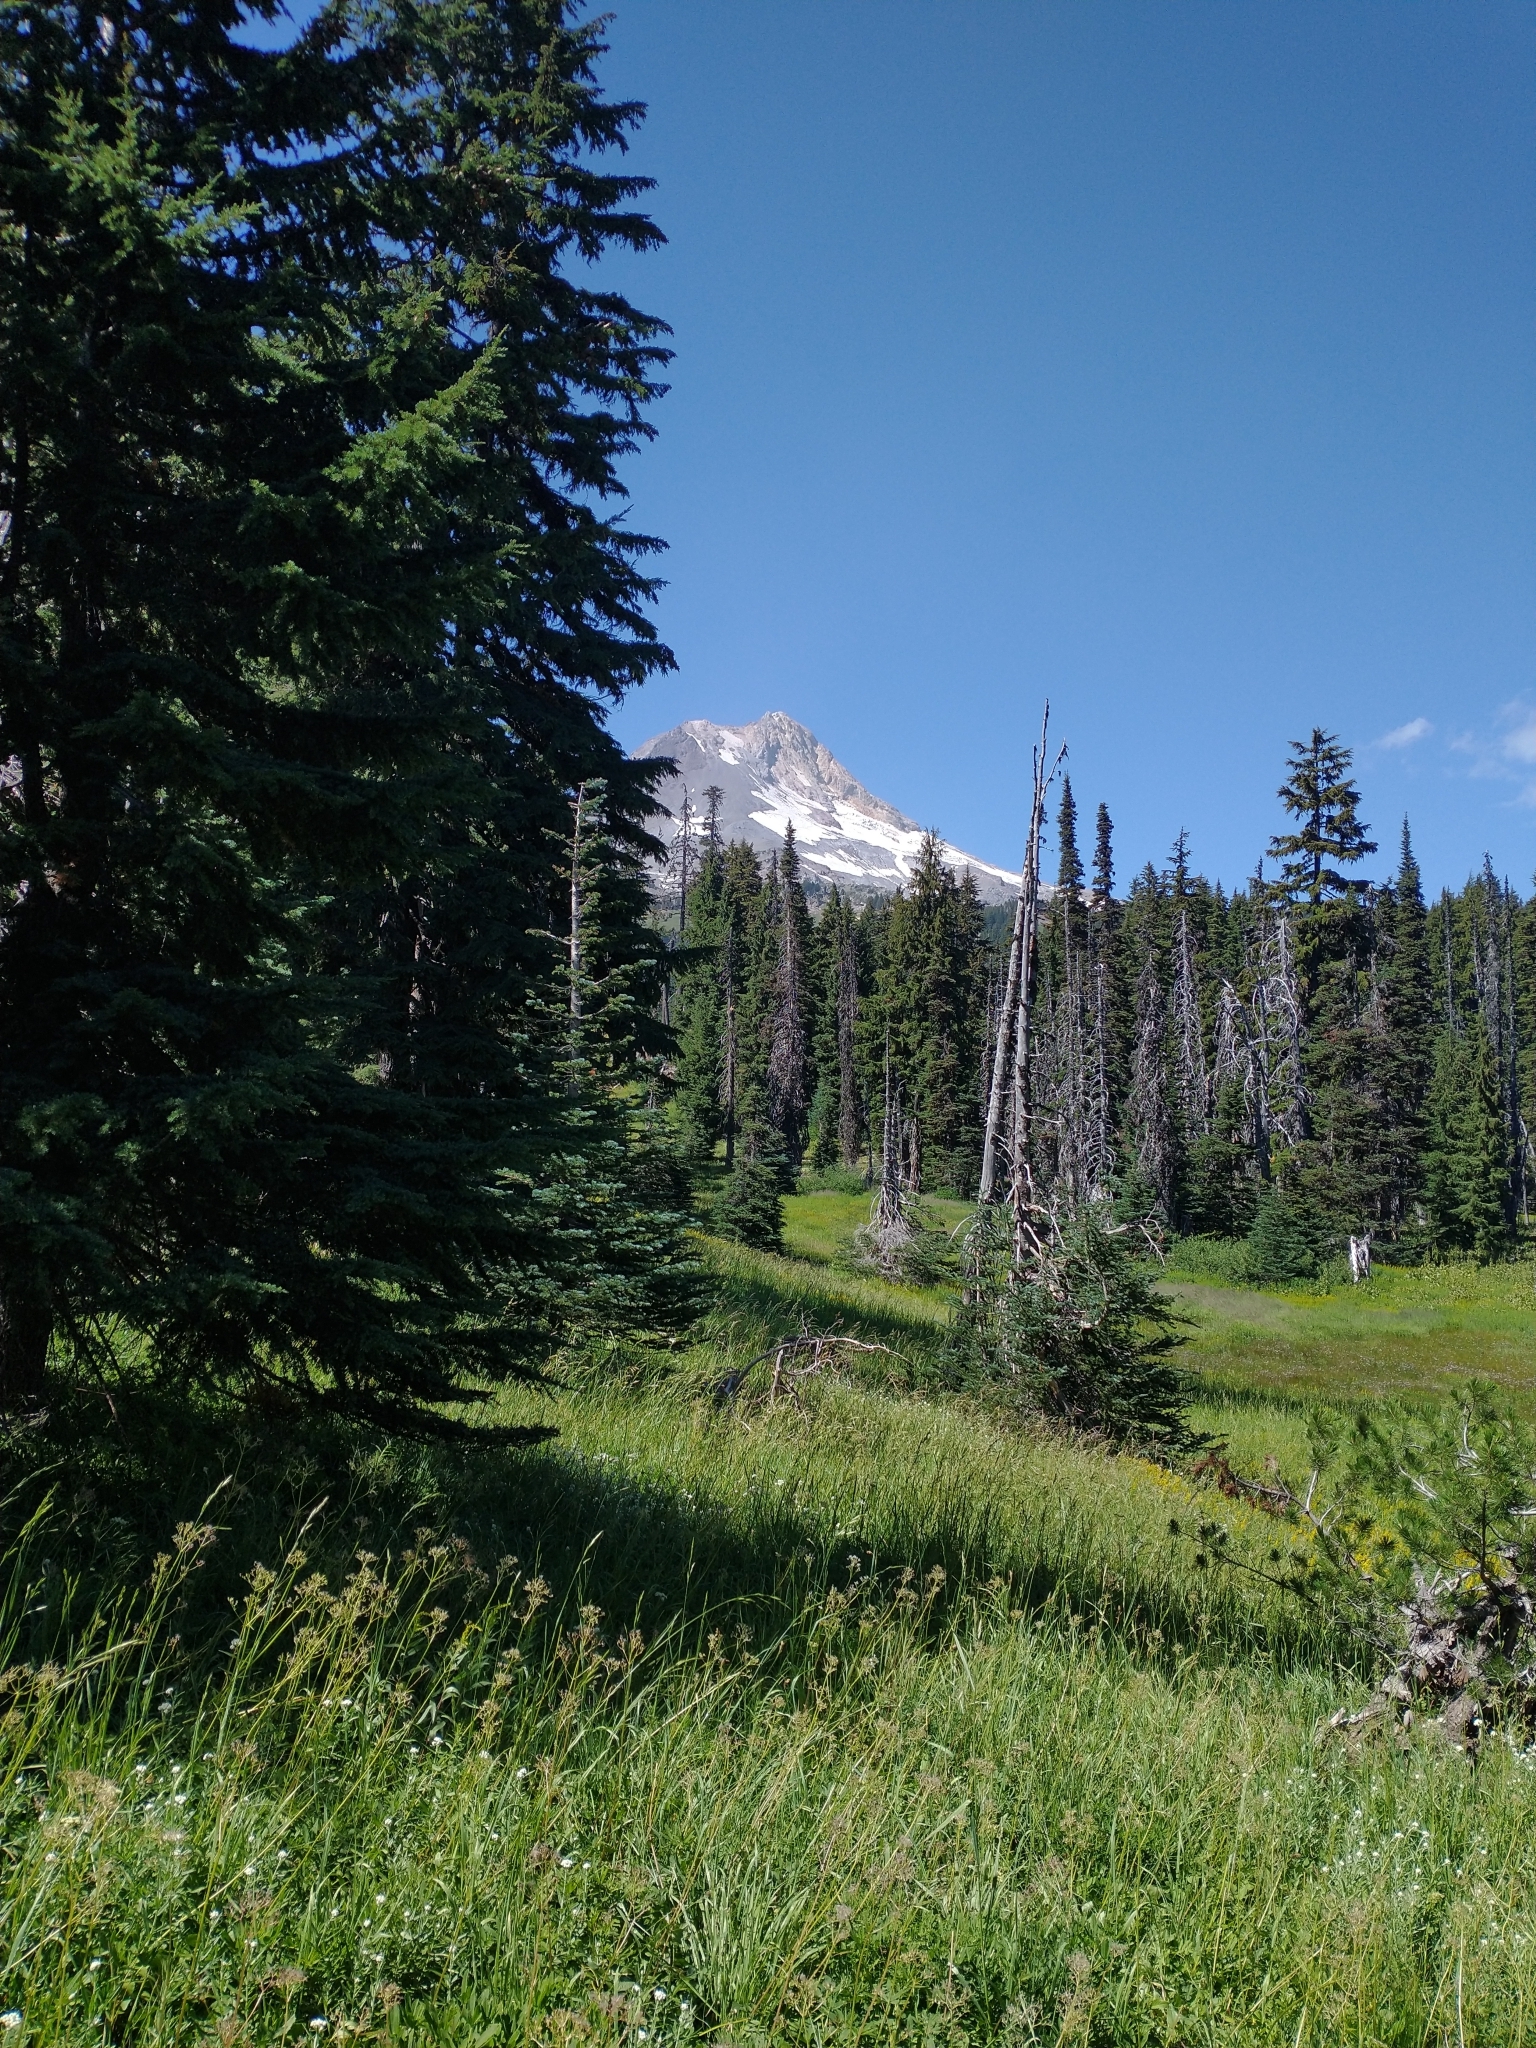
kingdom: Plantae
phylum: Tracheophyta
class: Pinopsida
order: Pinales
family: Pinaceae
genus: Tsuga
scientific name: Tsuga mertensiana
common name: Mountain hemlock
